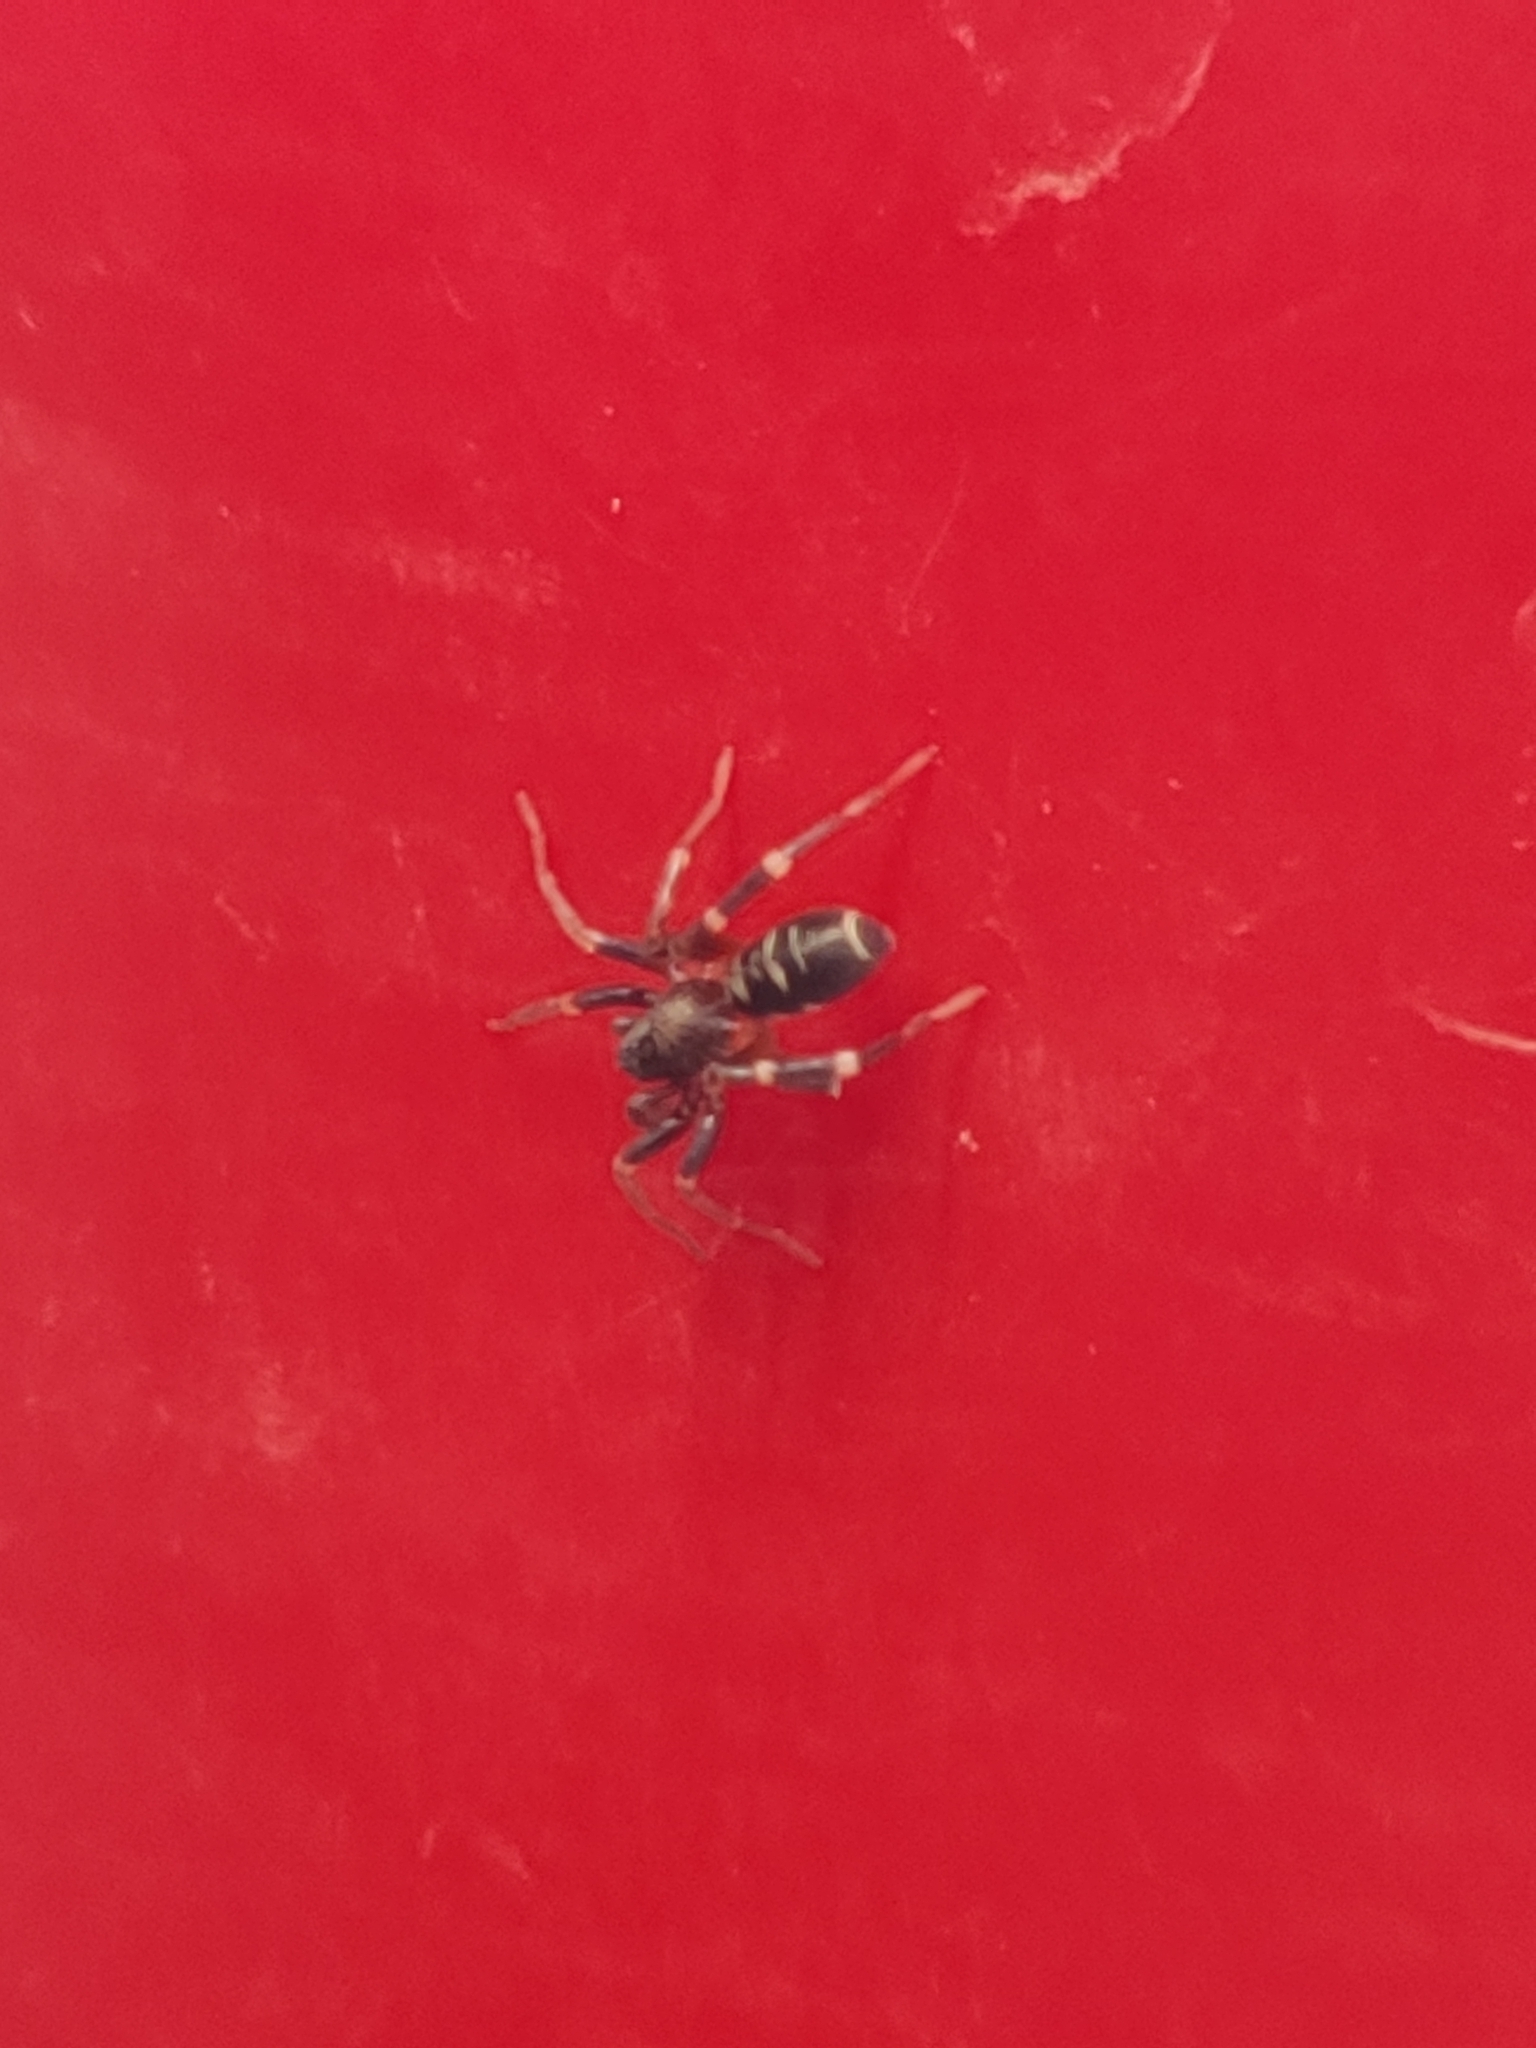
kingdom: Animalia
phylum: Arthropoda
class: Arachnida
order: Araneae
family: Corinnidae
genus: Castianeira
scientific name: Castianeira
